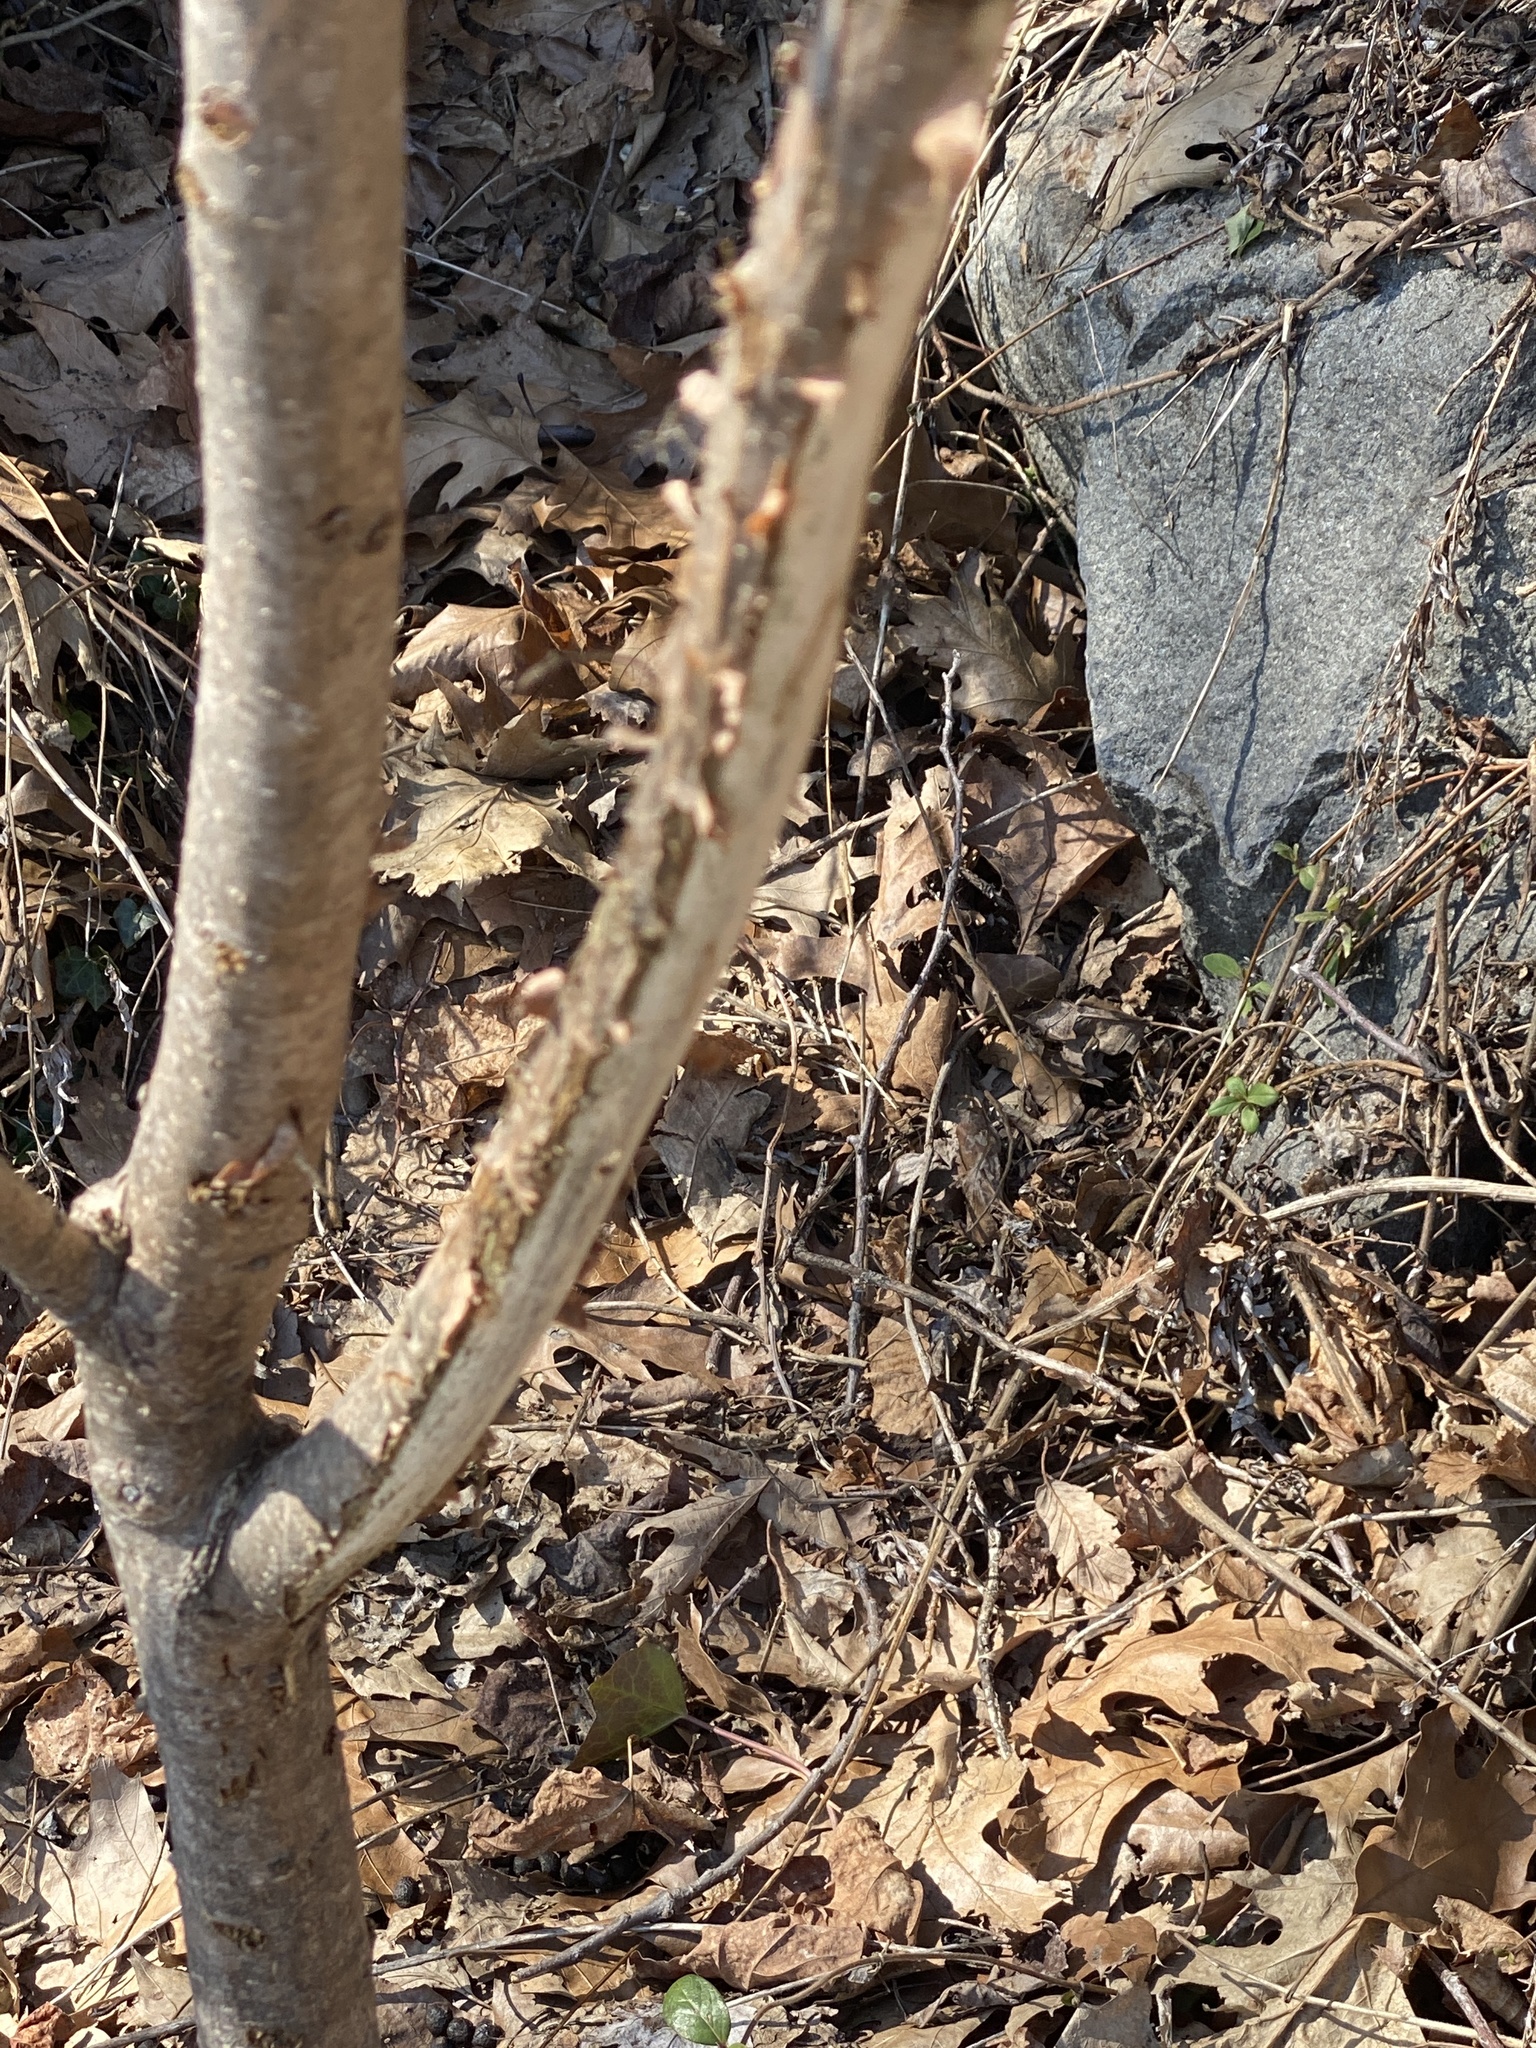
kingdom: Animalia
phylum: Chordata
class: Mammalia
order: Artiodactyla
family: Cervidae
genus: Odocoileus
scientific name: Odocoileus virginianus
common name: White-tailed deer
